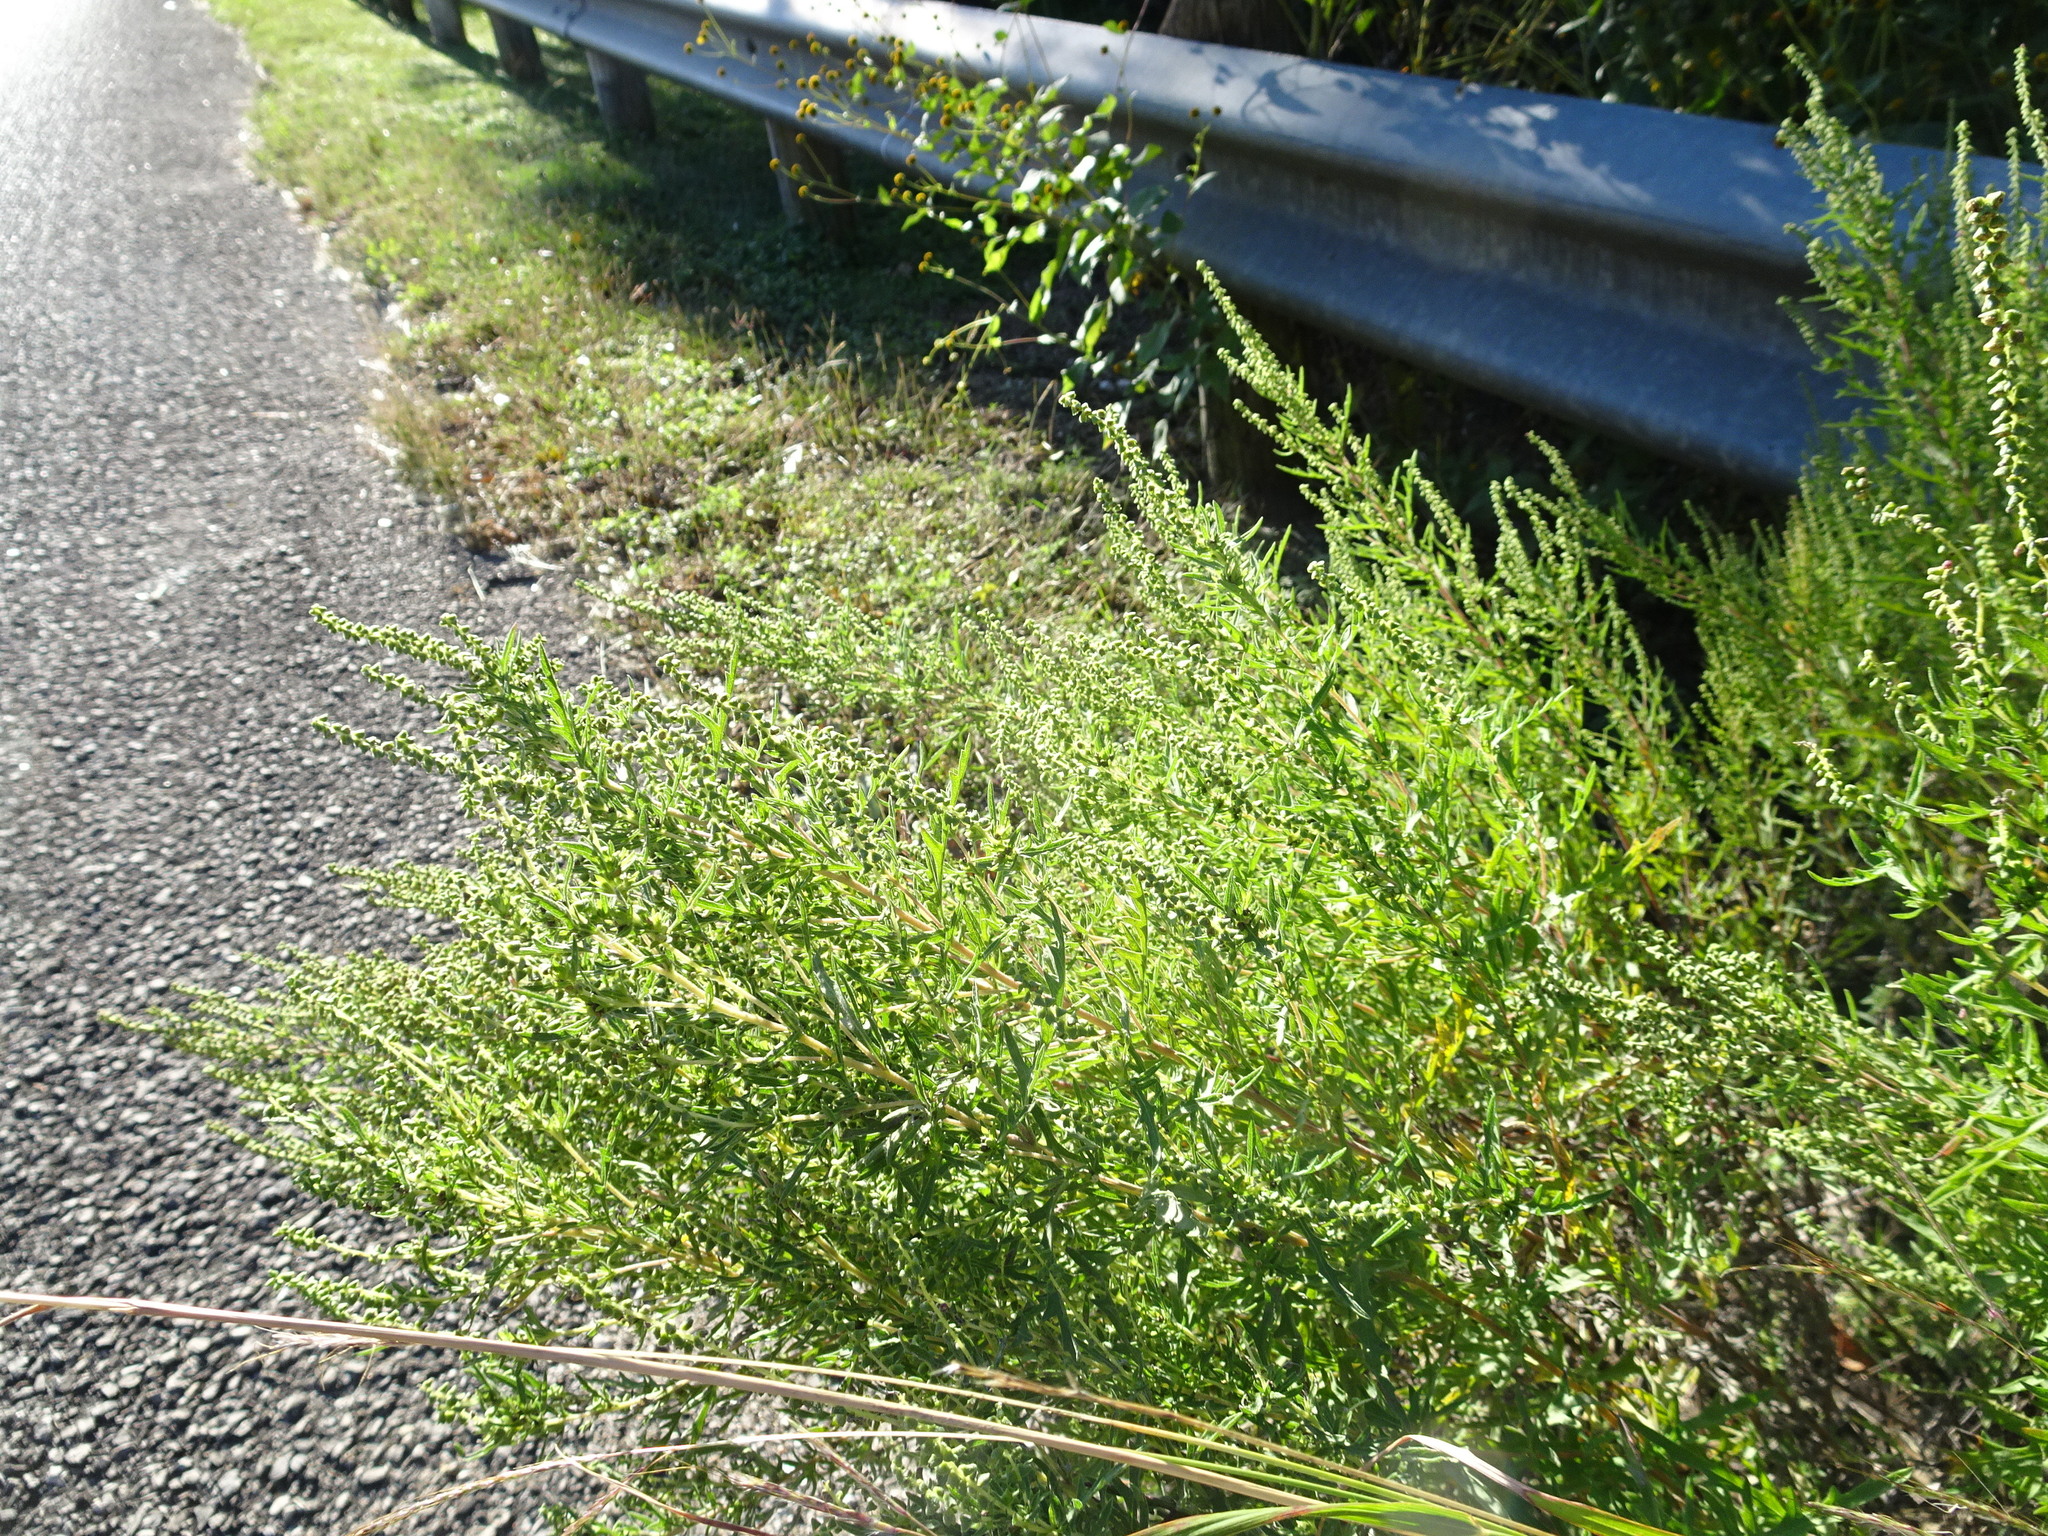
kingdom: Plantae
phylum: Tracheophyta
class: Magnoliopsida
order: Asterales
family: Asteraceae
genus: Ambrosia
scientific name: Ambrosia psilostachya
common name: Perennial ragweed
